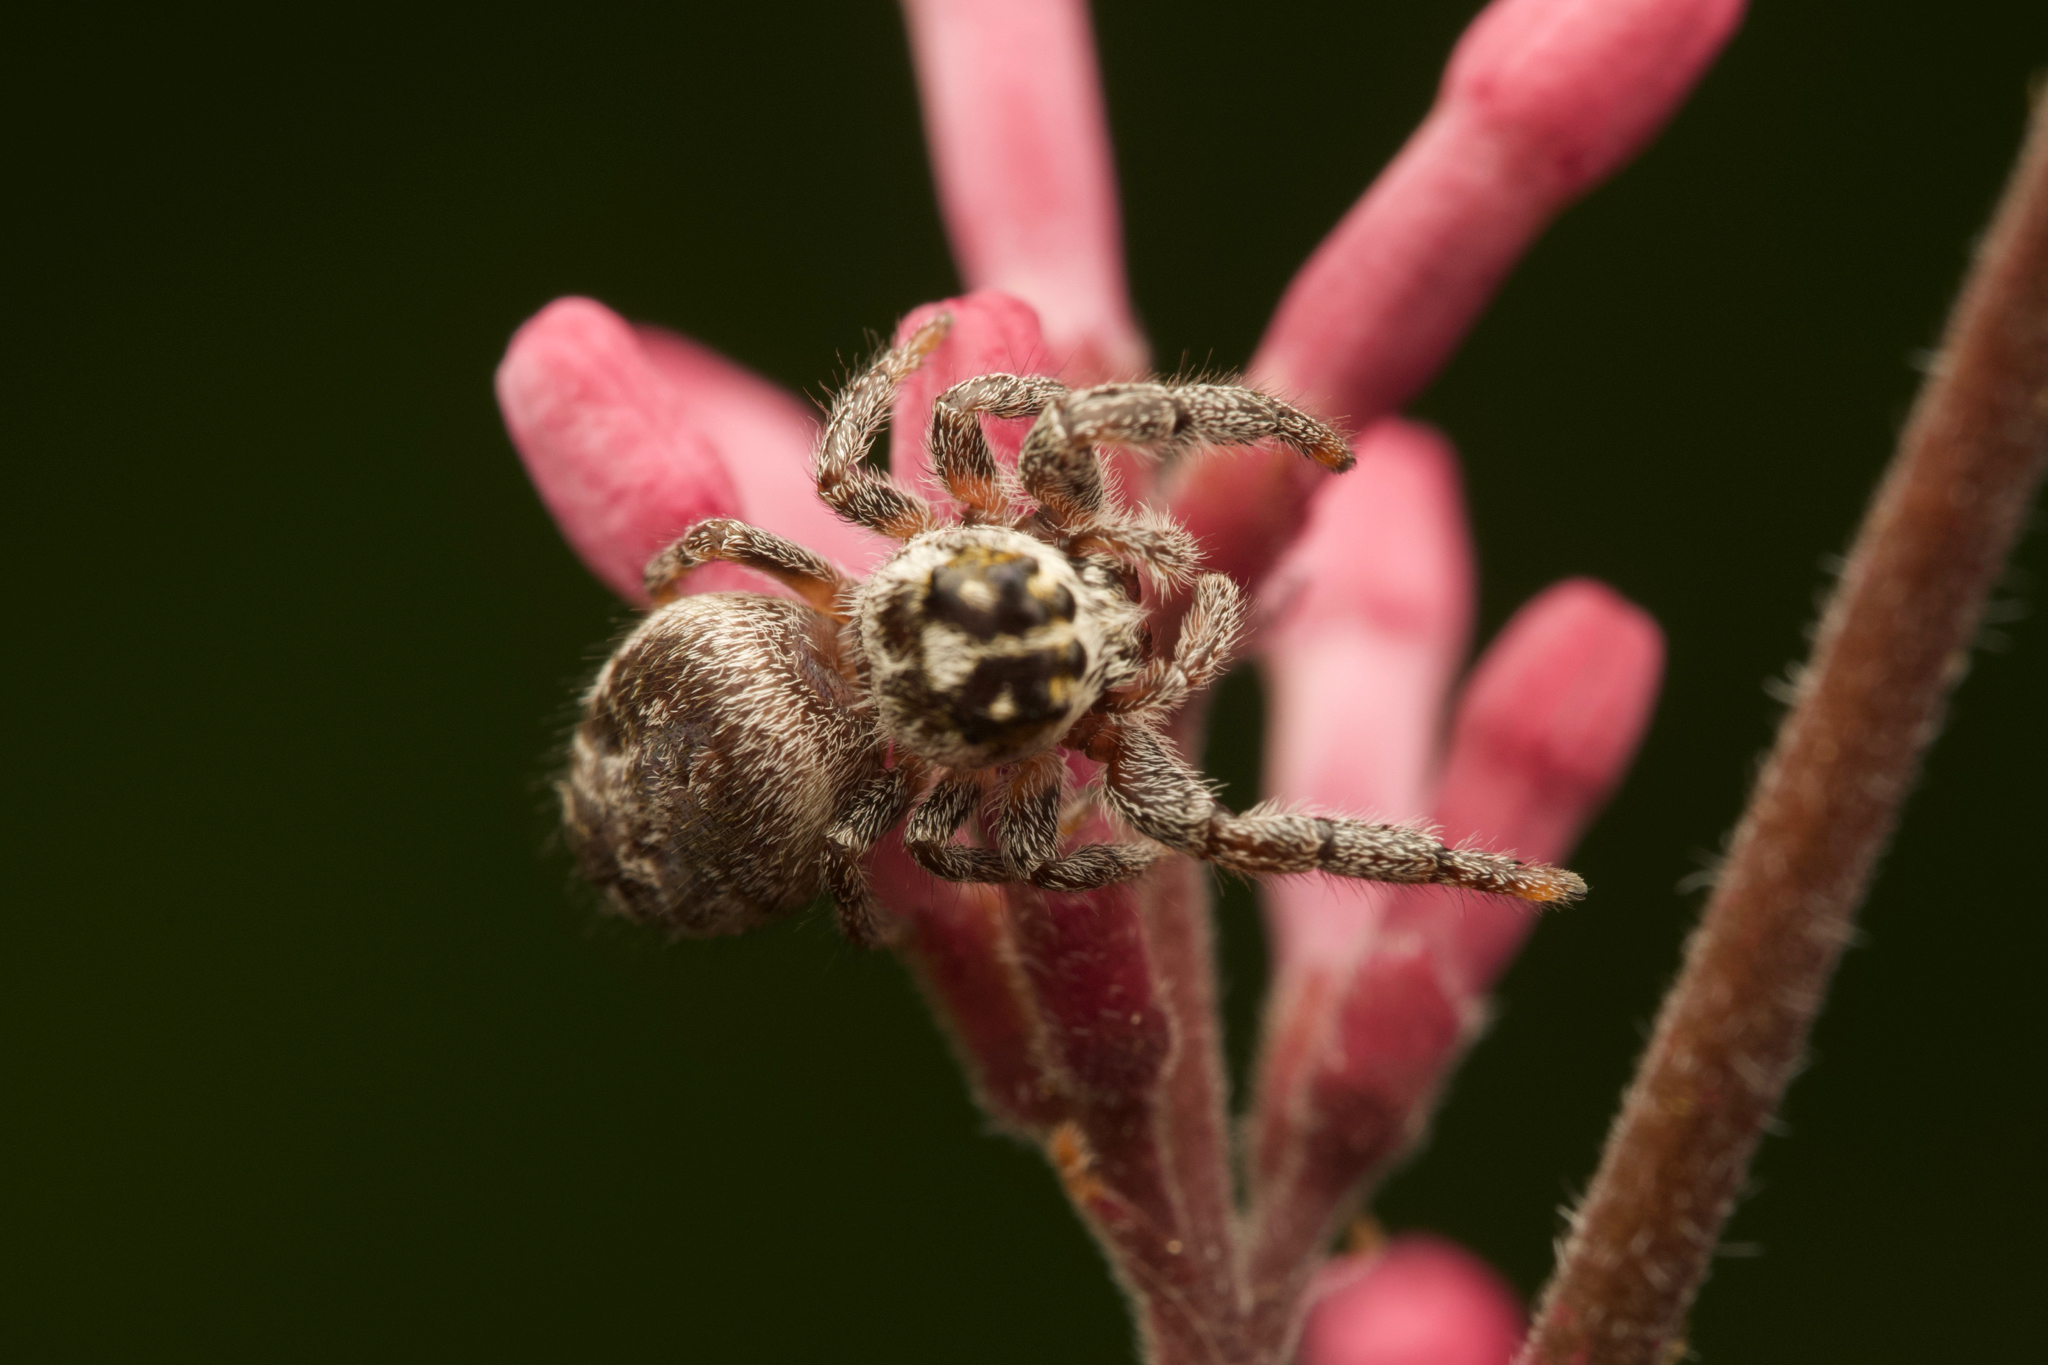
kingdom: Animalia
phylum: Arthropoda
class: Arachnida
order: Araneae
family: Salticidae
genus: Macaroeris
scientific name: Macaroeris nidicolens
